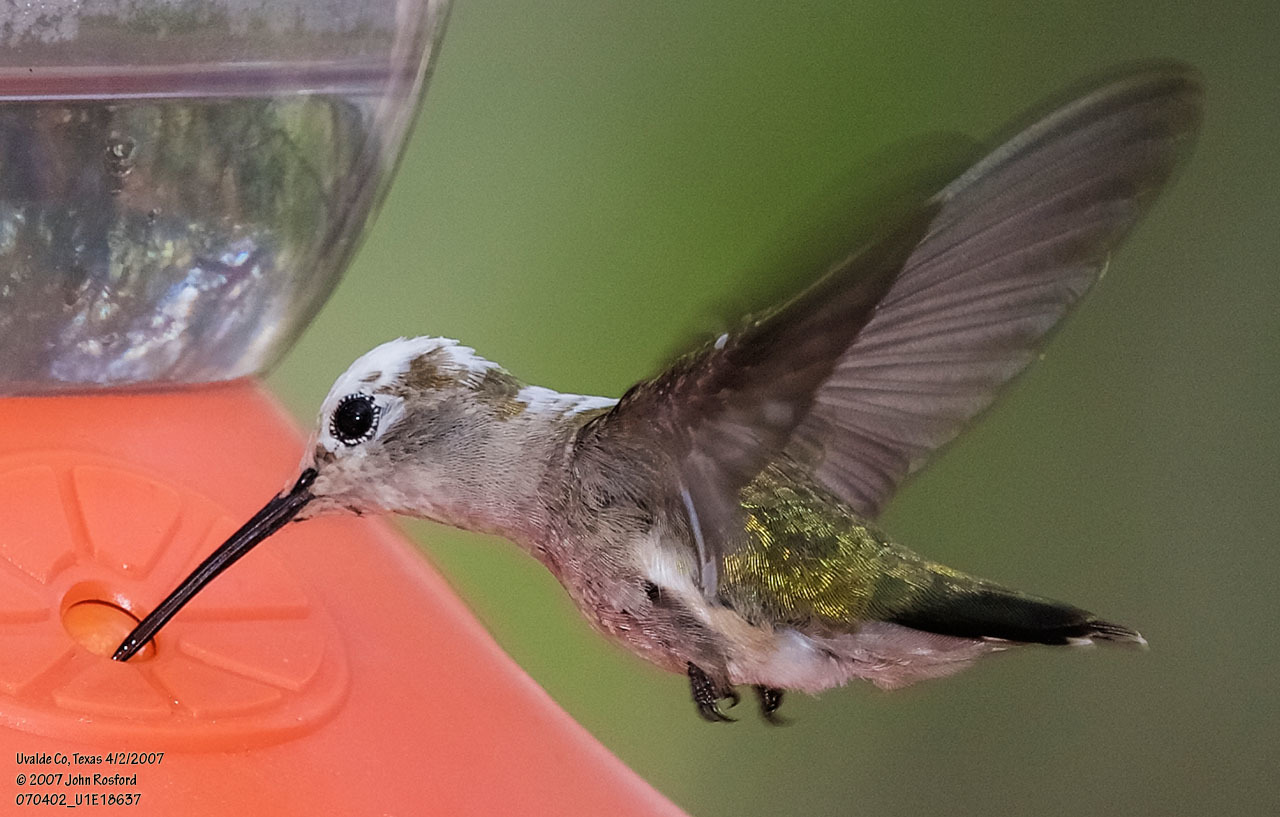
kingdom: Animalia
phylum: Chordata
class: Aves
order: Apodiformes
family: Trochilidae
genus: Archilochus
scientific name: Archilochus alexandri
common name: Black-chinned hummingbird
